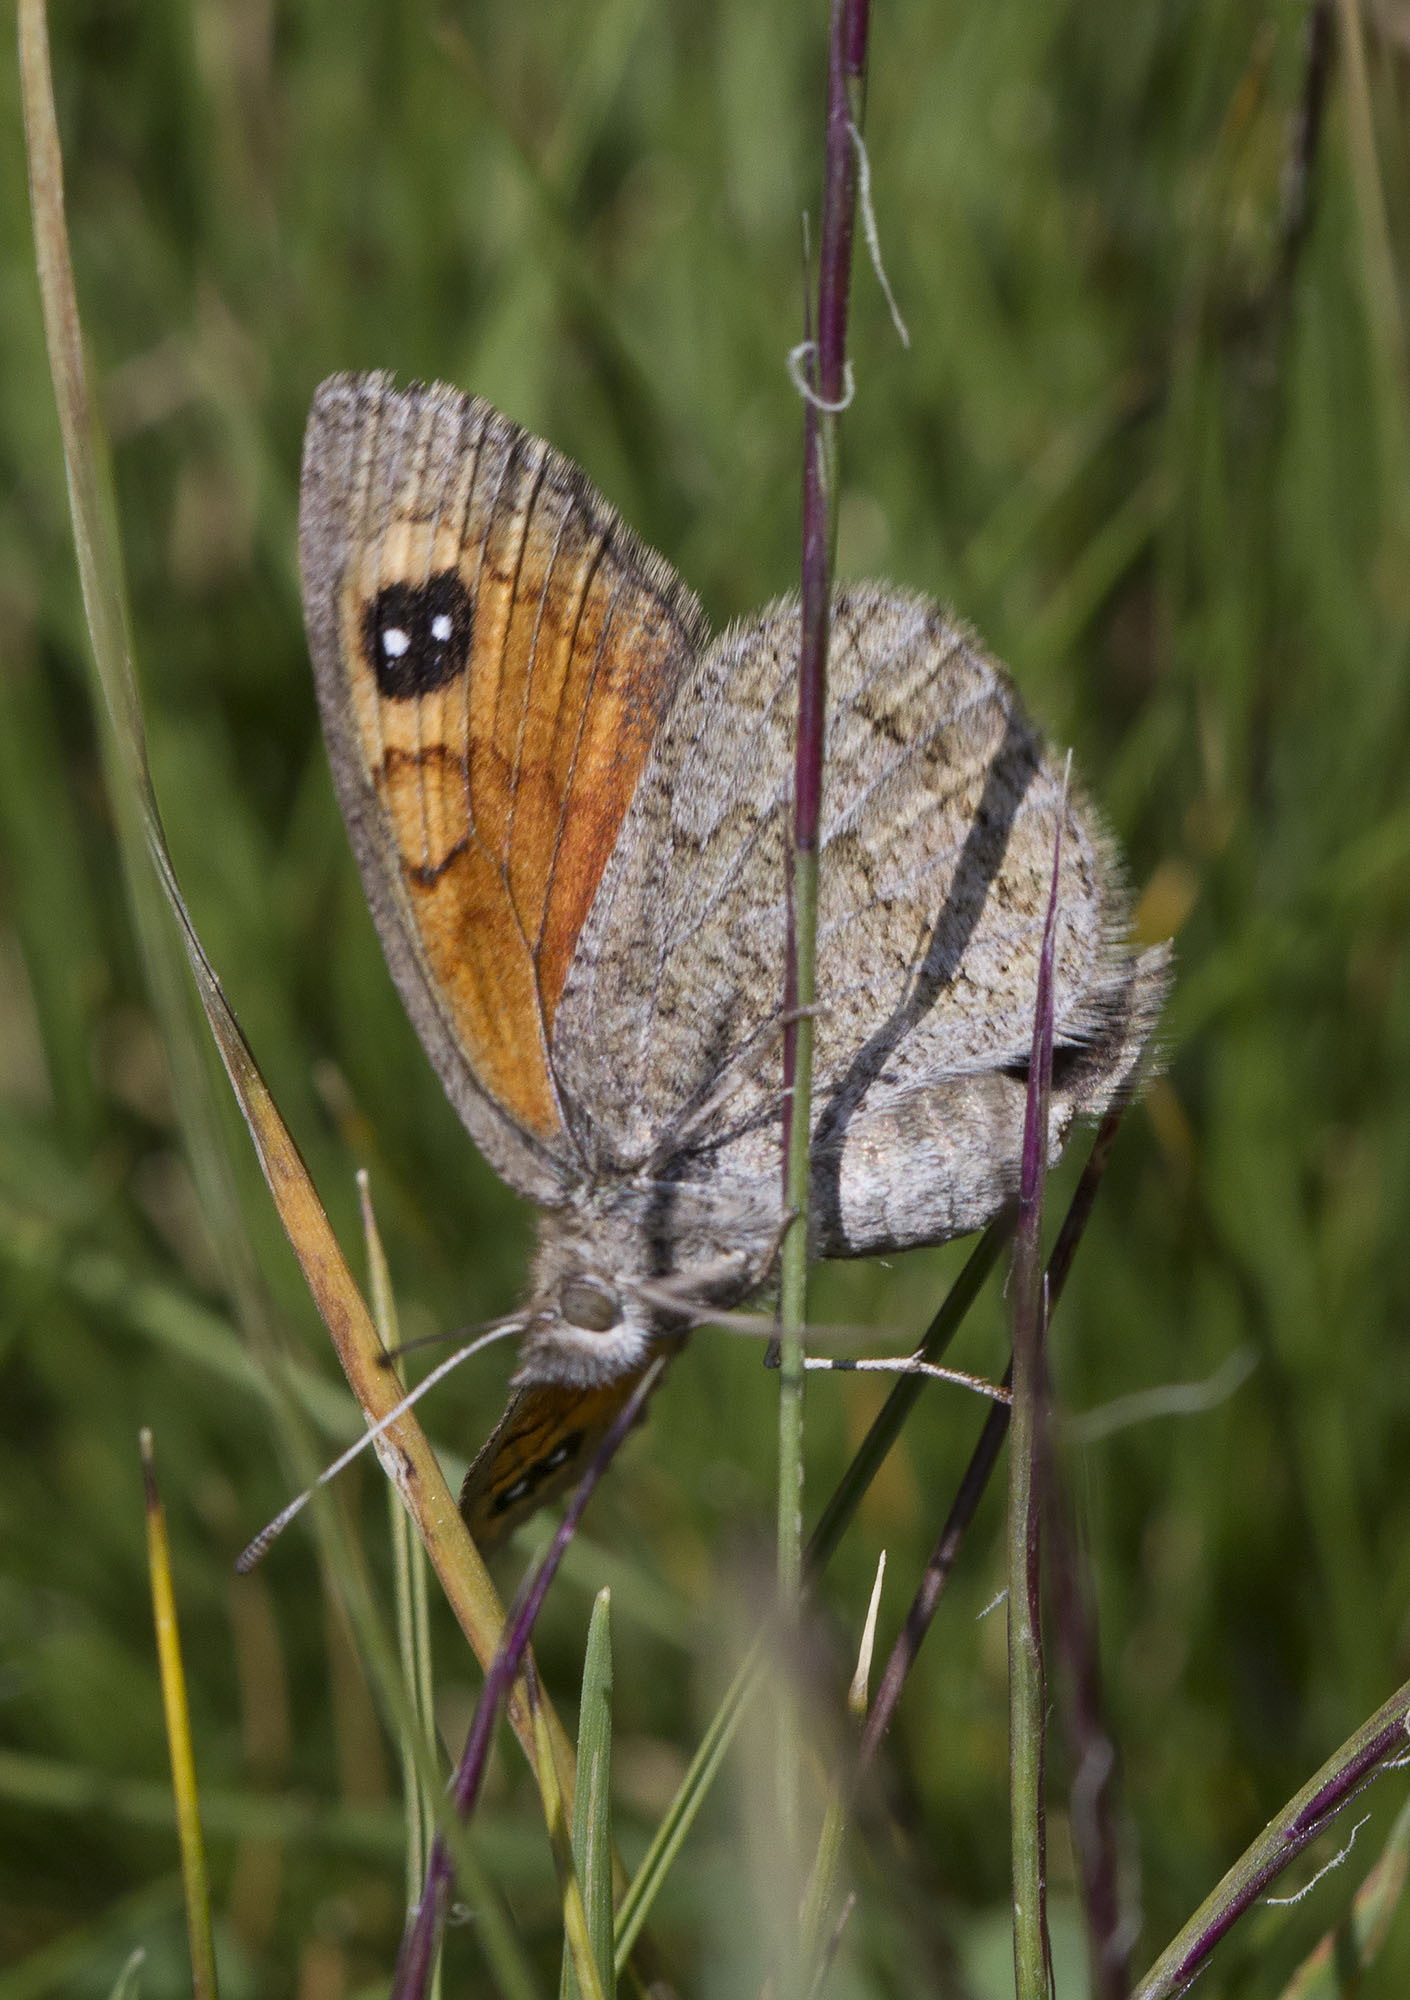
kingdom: Animalia
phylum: Arthropoda
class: Insecta
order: Lepidoptera
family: Nymphalidae
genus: Erebia
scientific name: Erebia iranica
